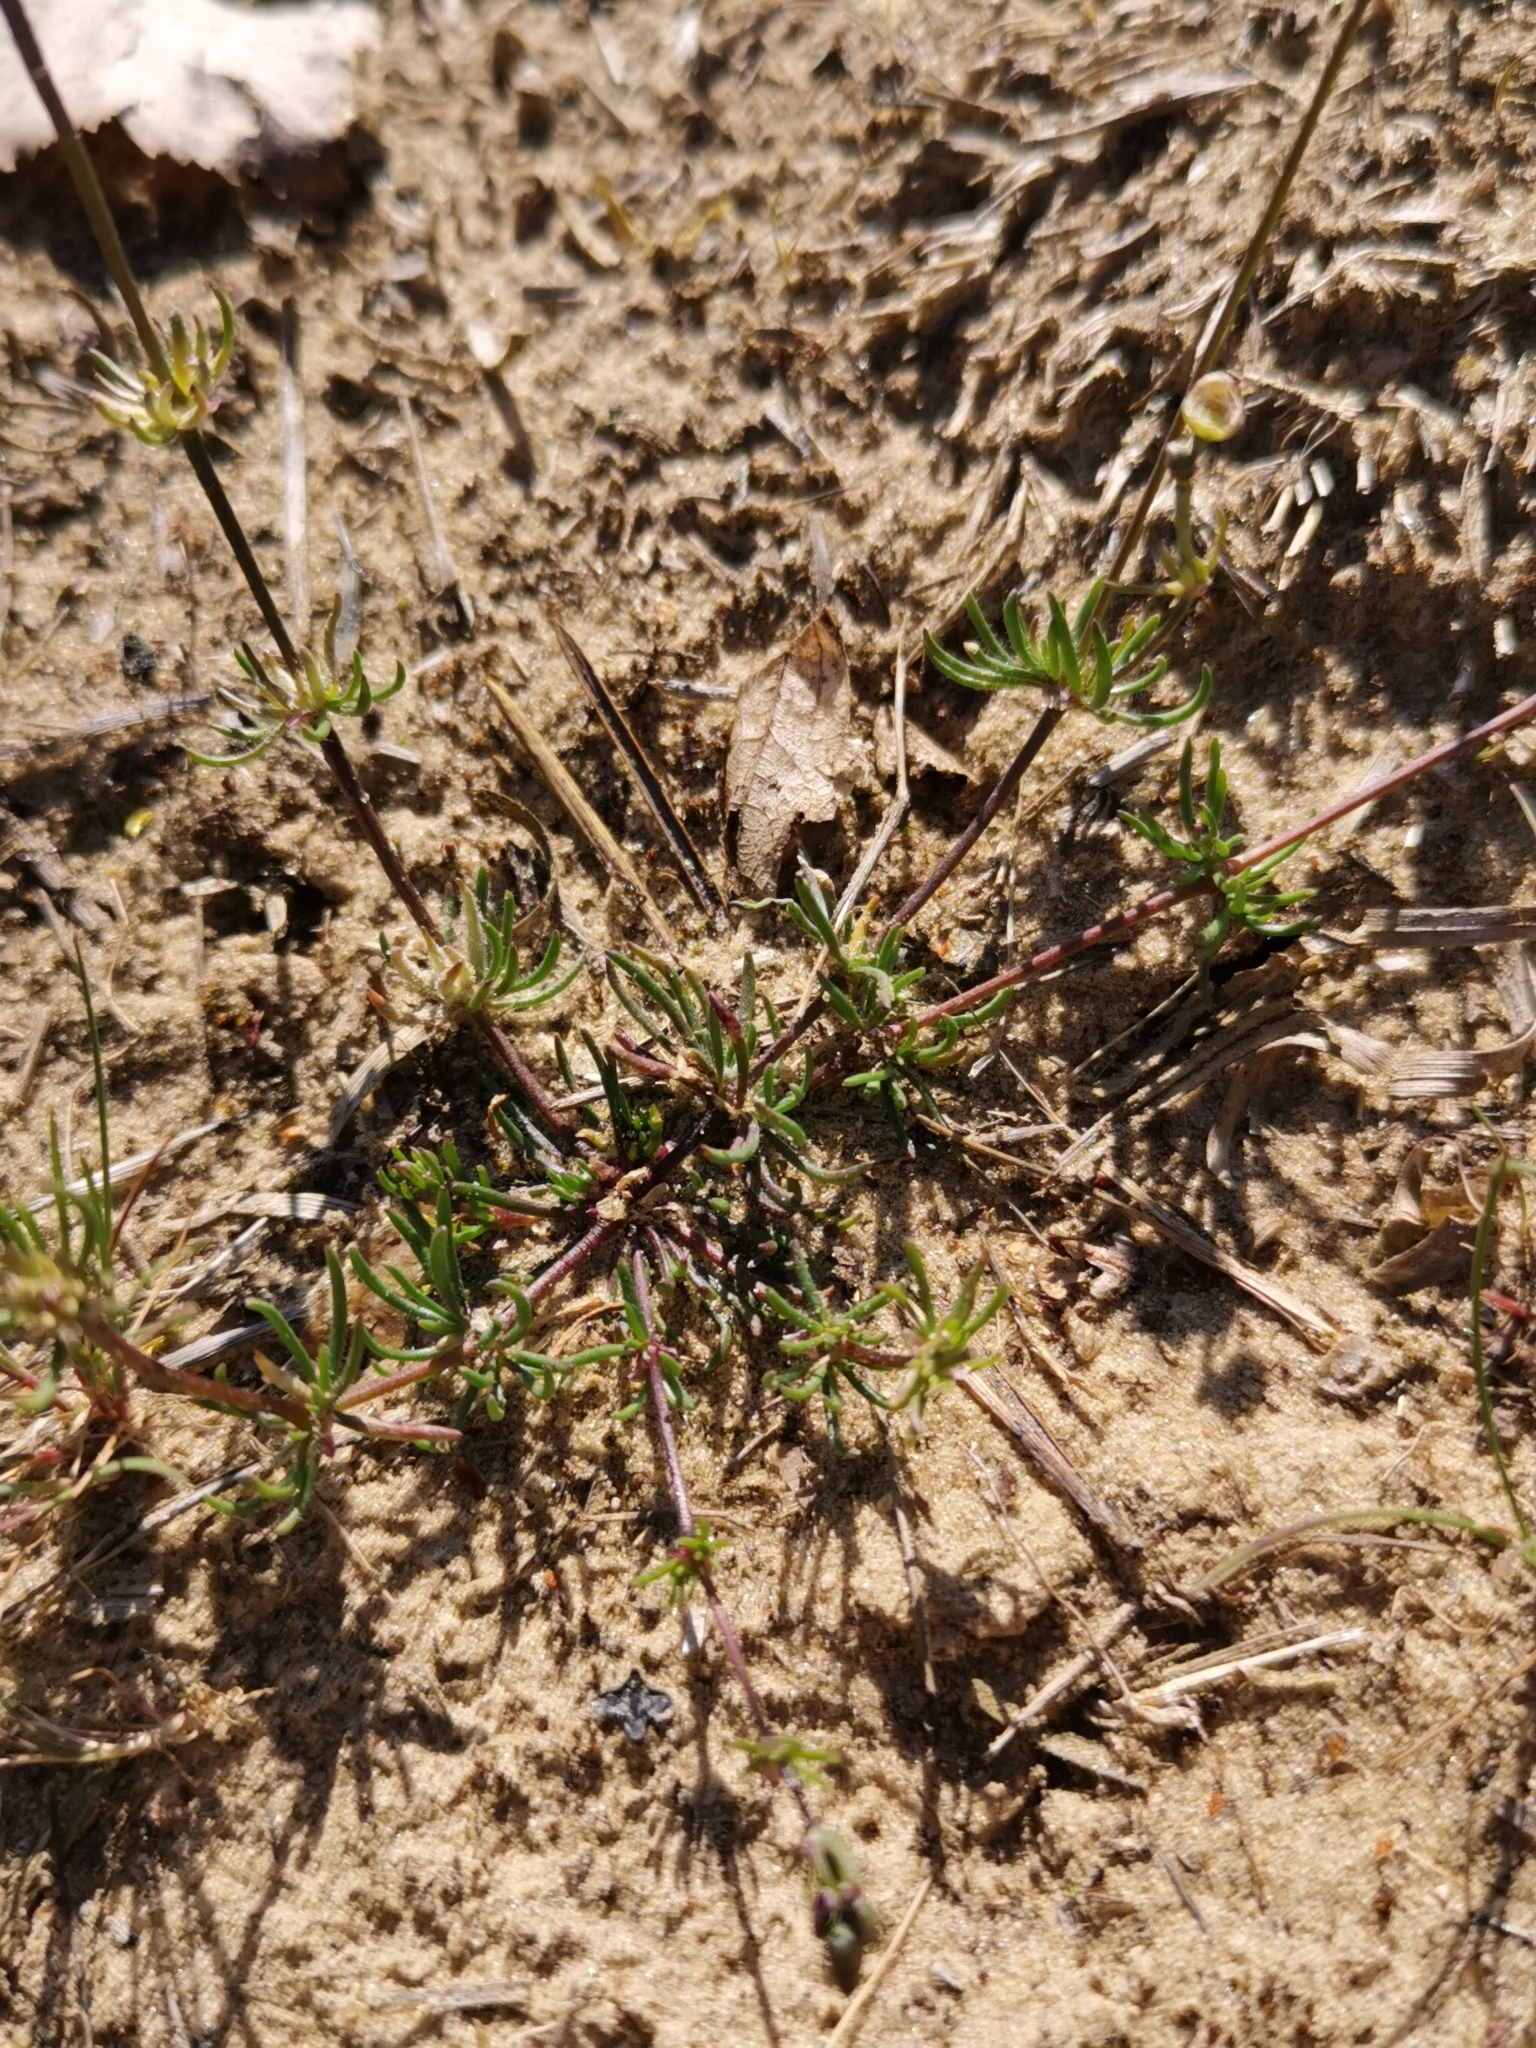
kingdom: Plantae
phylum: Tracheophyta
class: Magnoliopsida
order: Caryophyllales
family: Caryophyllaceae
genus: Spergula
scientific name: Spergula morisonii
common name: Pearlwort spurrey
